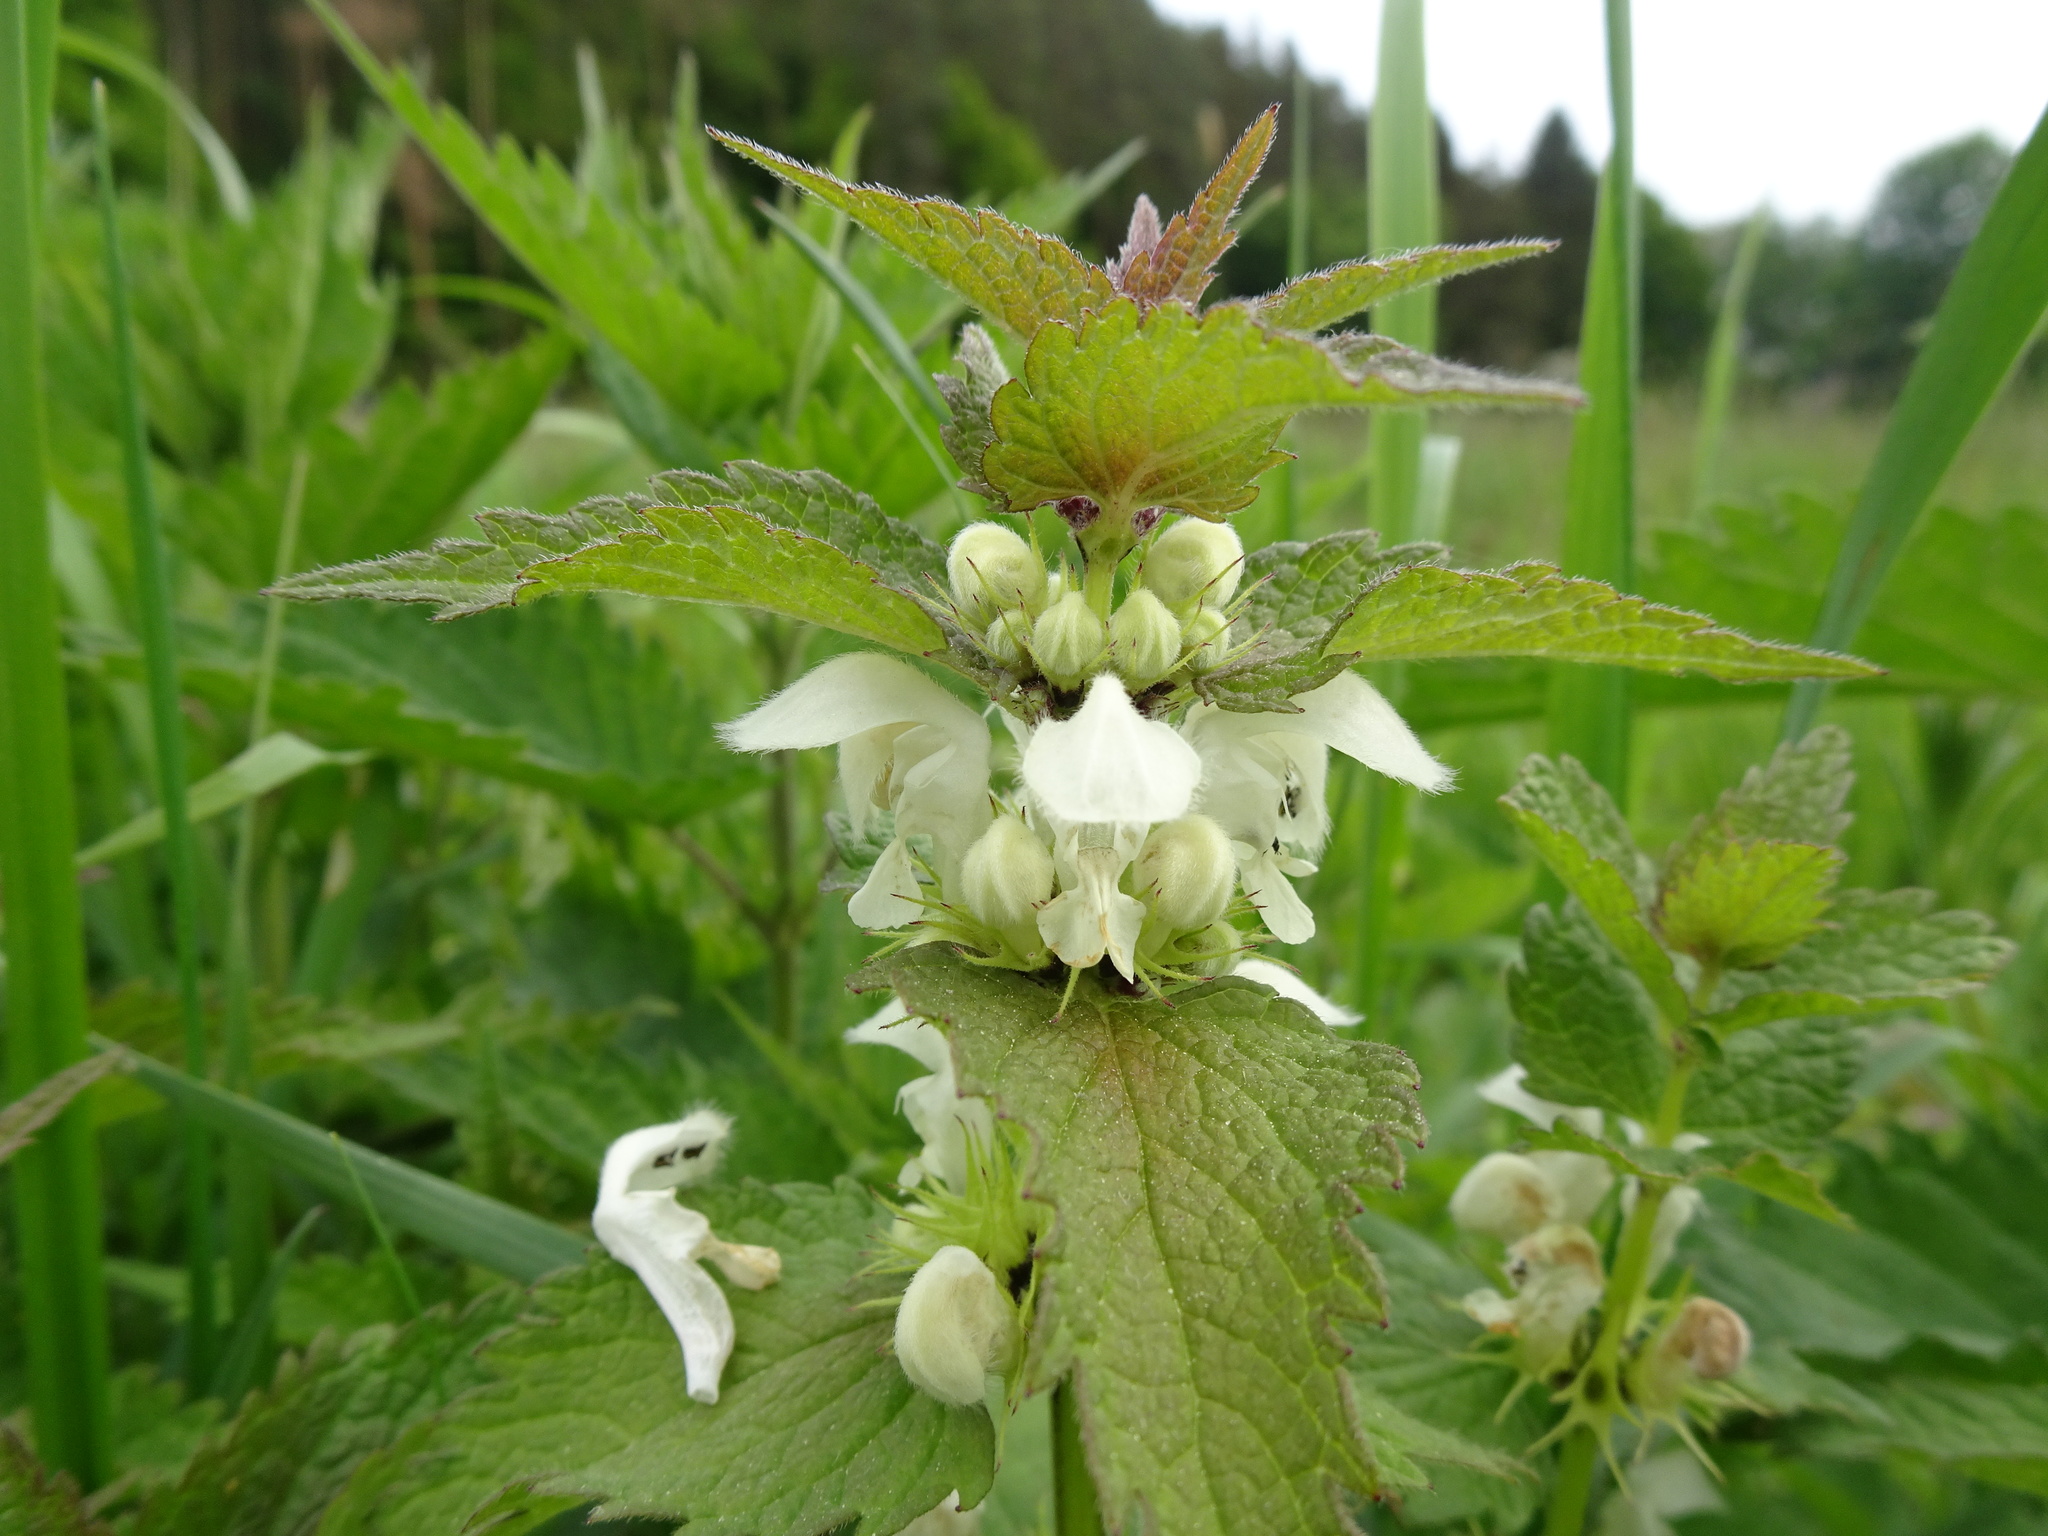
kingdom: Plantae
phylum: Tracheophyta
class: Magnoliopsida
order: Lamiales
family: Lamiaceae
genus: Lamium
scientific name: Lamium album
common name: White dead-nettle
